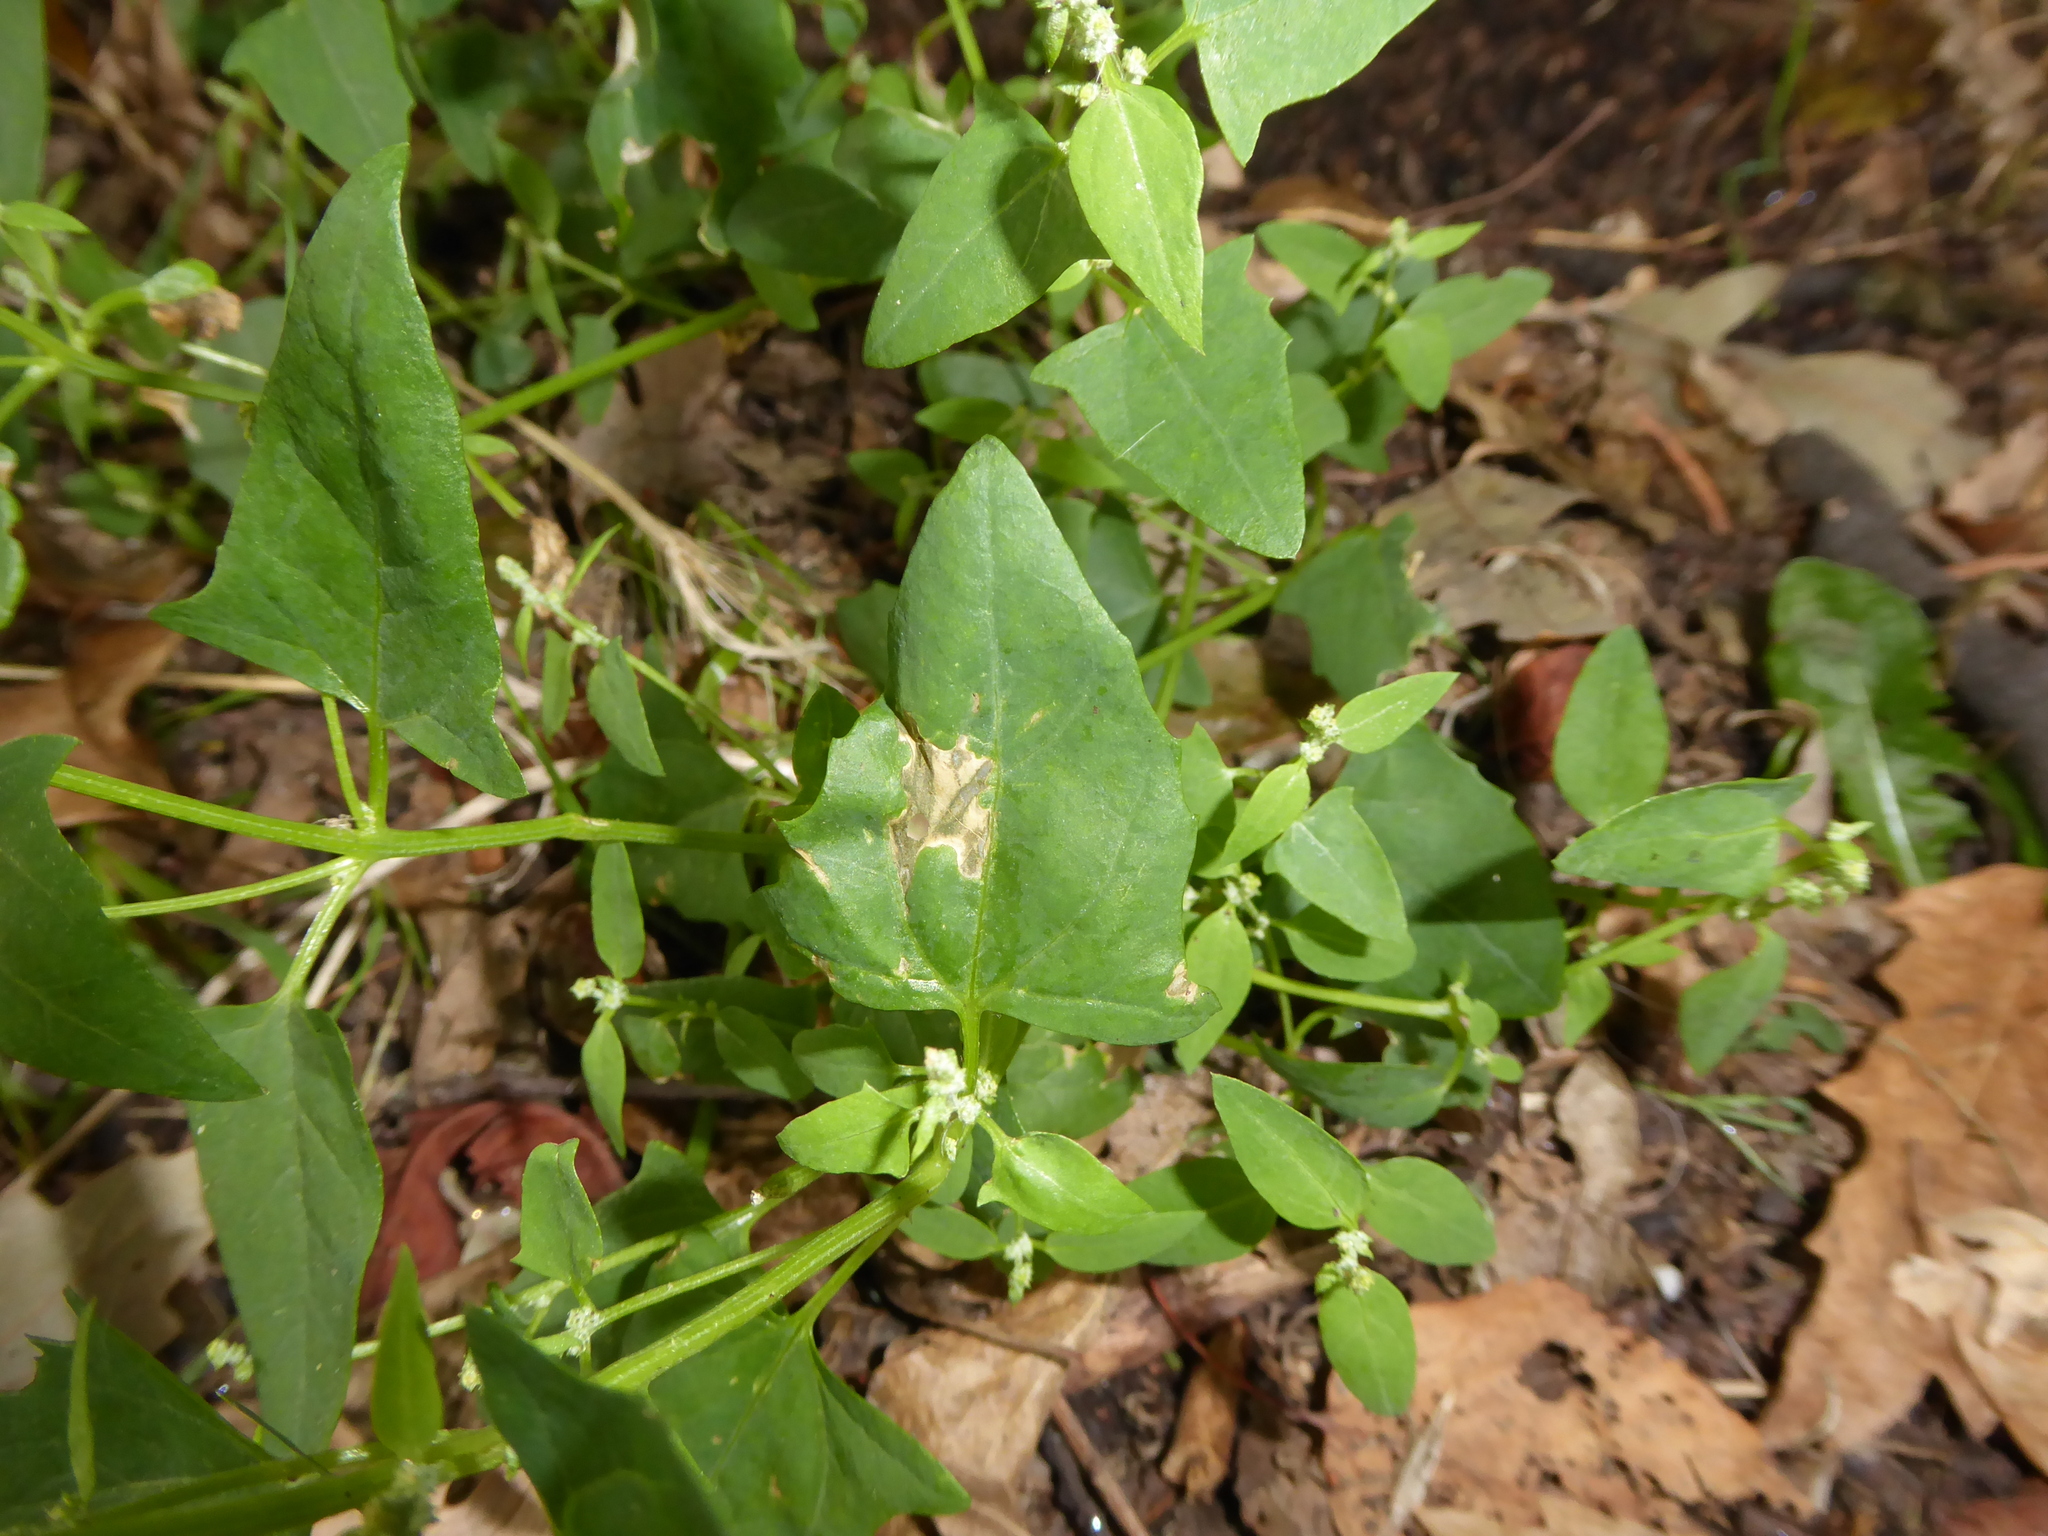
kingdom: Plantae
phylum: Tracheophyta
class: Magnoliopsida
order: Caryophyllales
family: Amaranthaceae
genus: Atriplex
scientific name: Atriplex prostrata
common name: Spear-leaved orache
